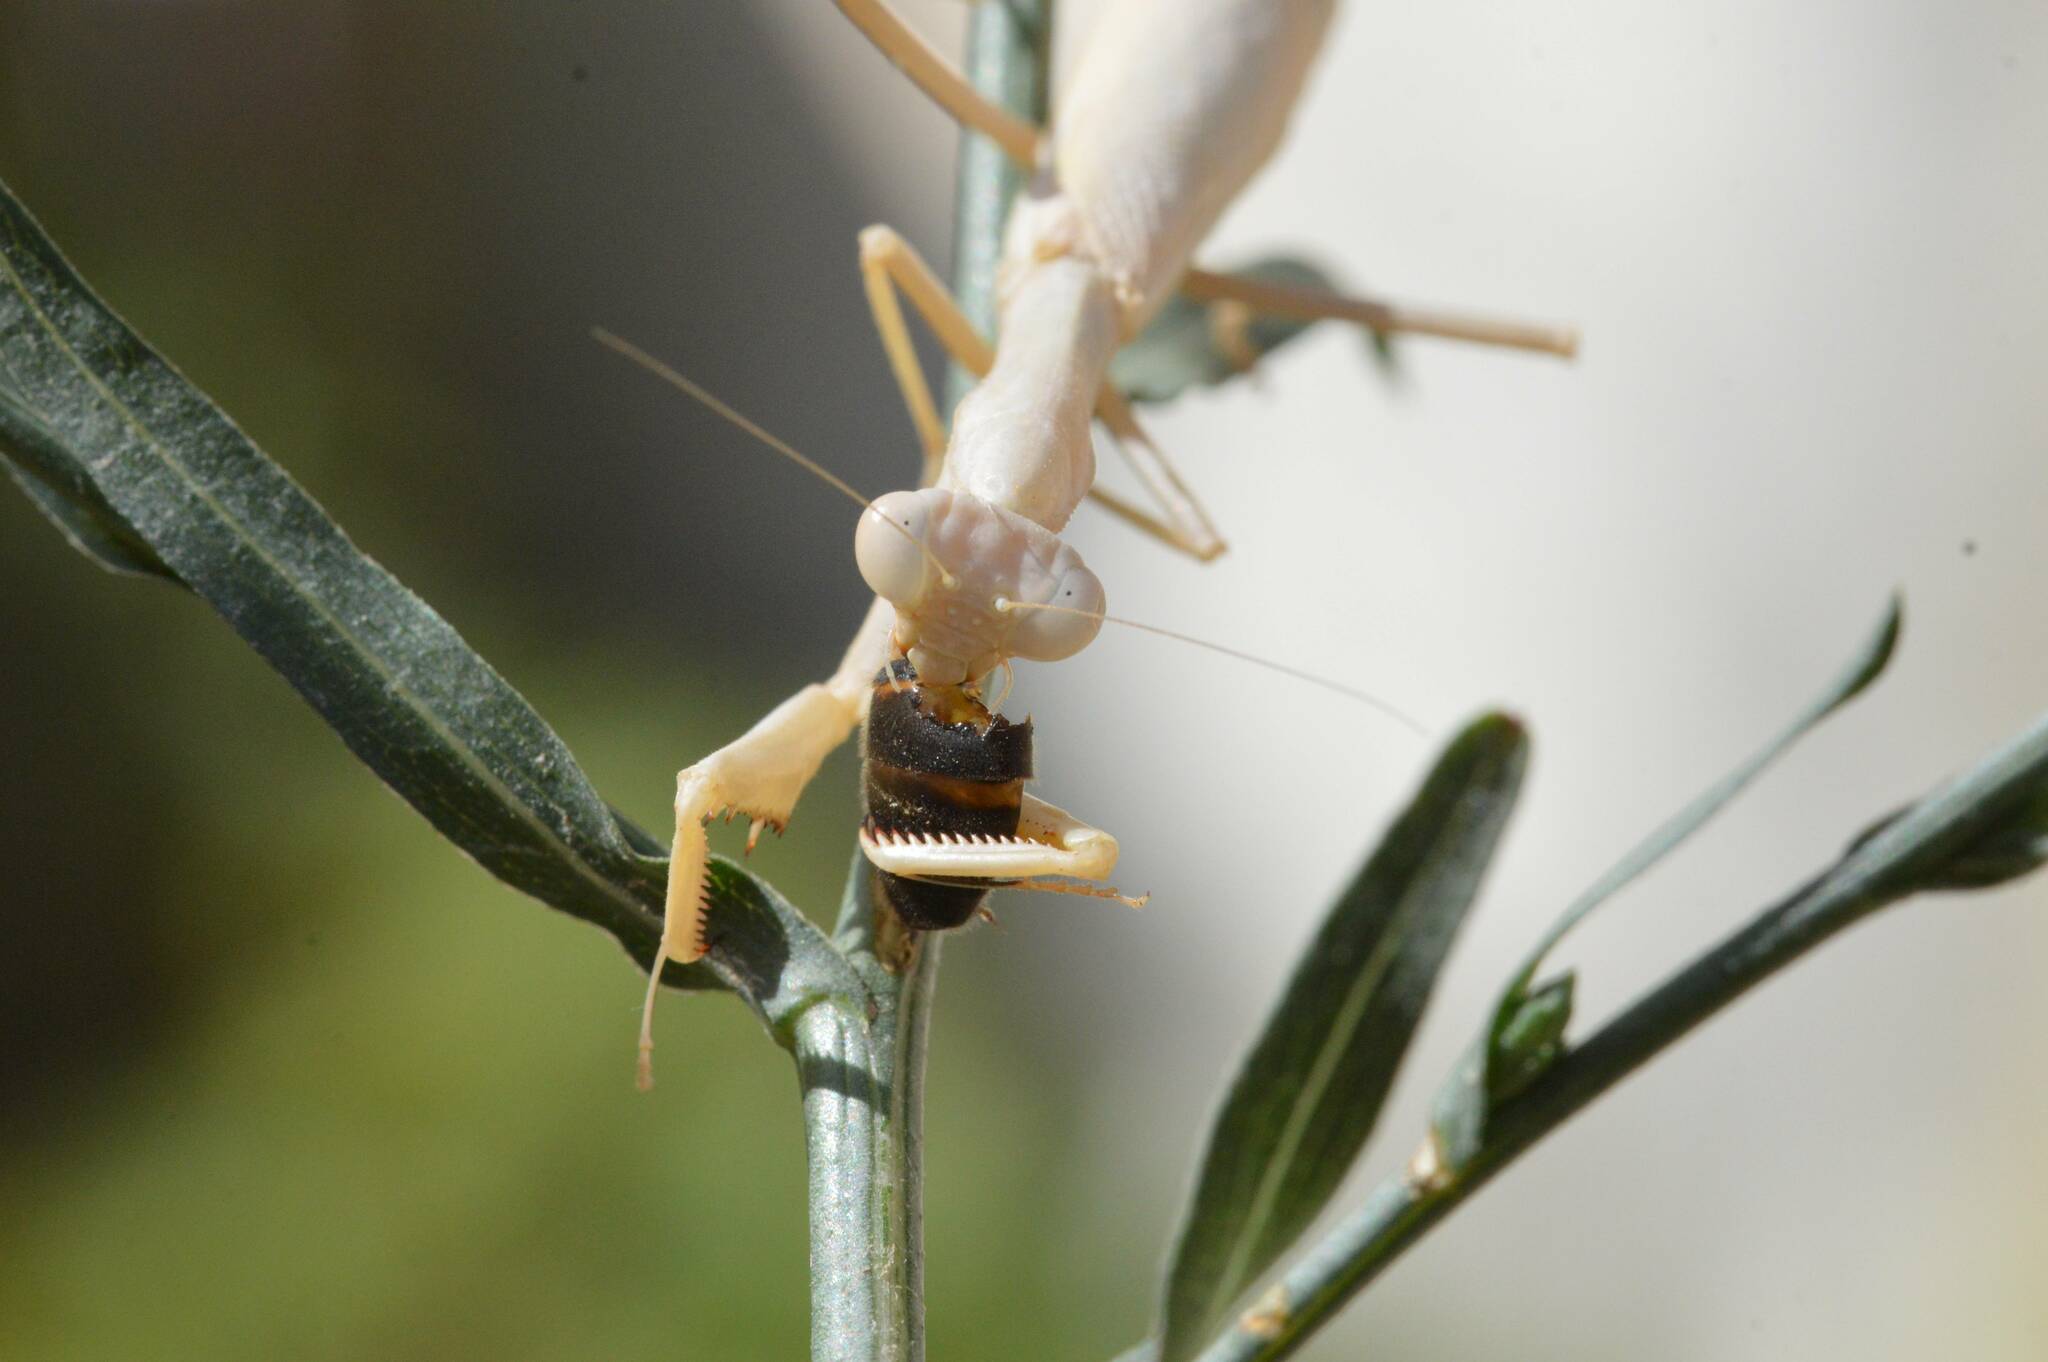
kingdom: Animalia
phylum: Chordata
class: Aves
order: Falconiformes
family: Falconidae
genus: Falco
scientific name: Falco biarmicus
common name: Lanner falcon
